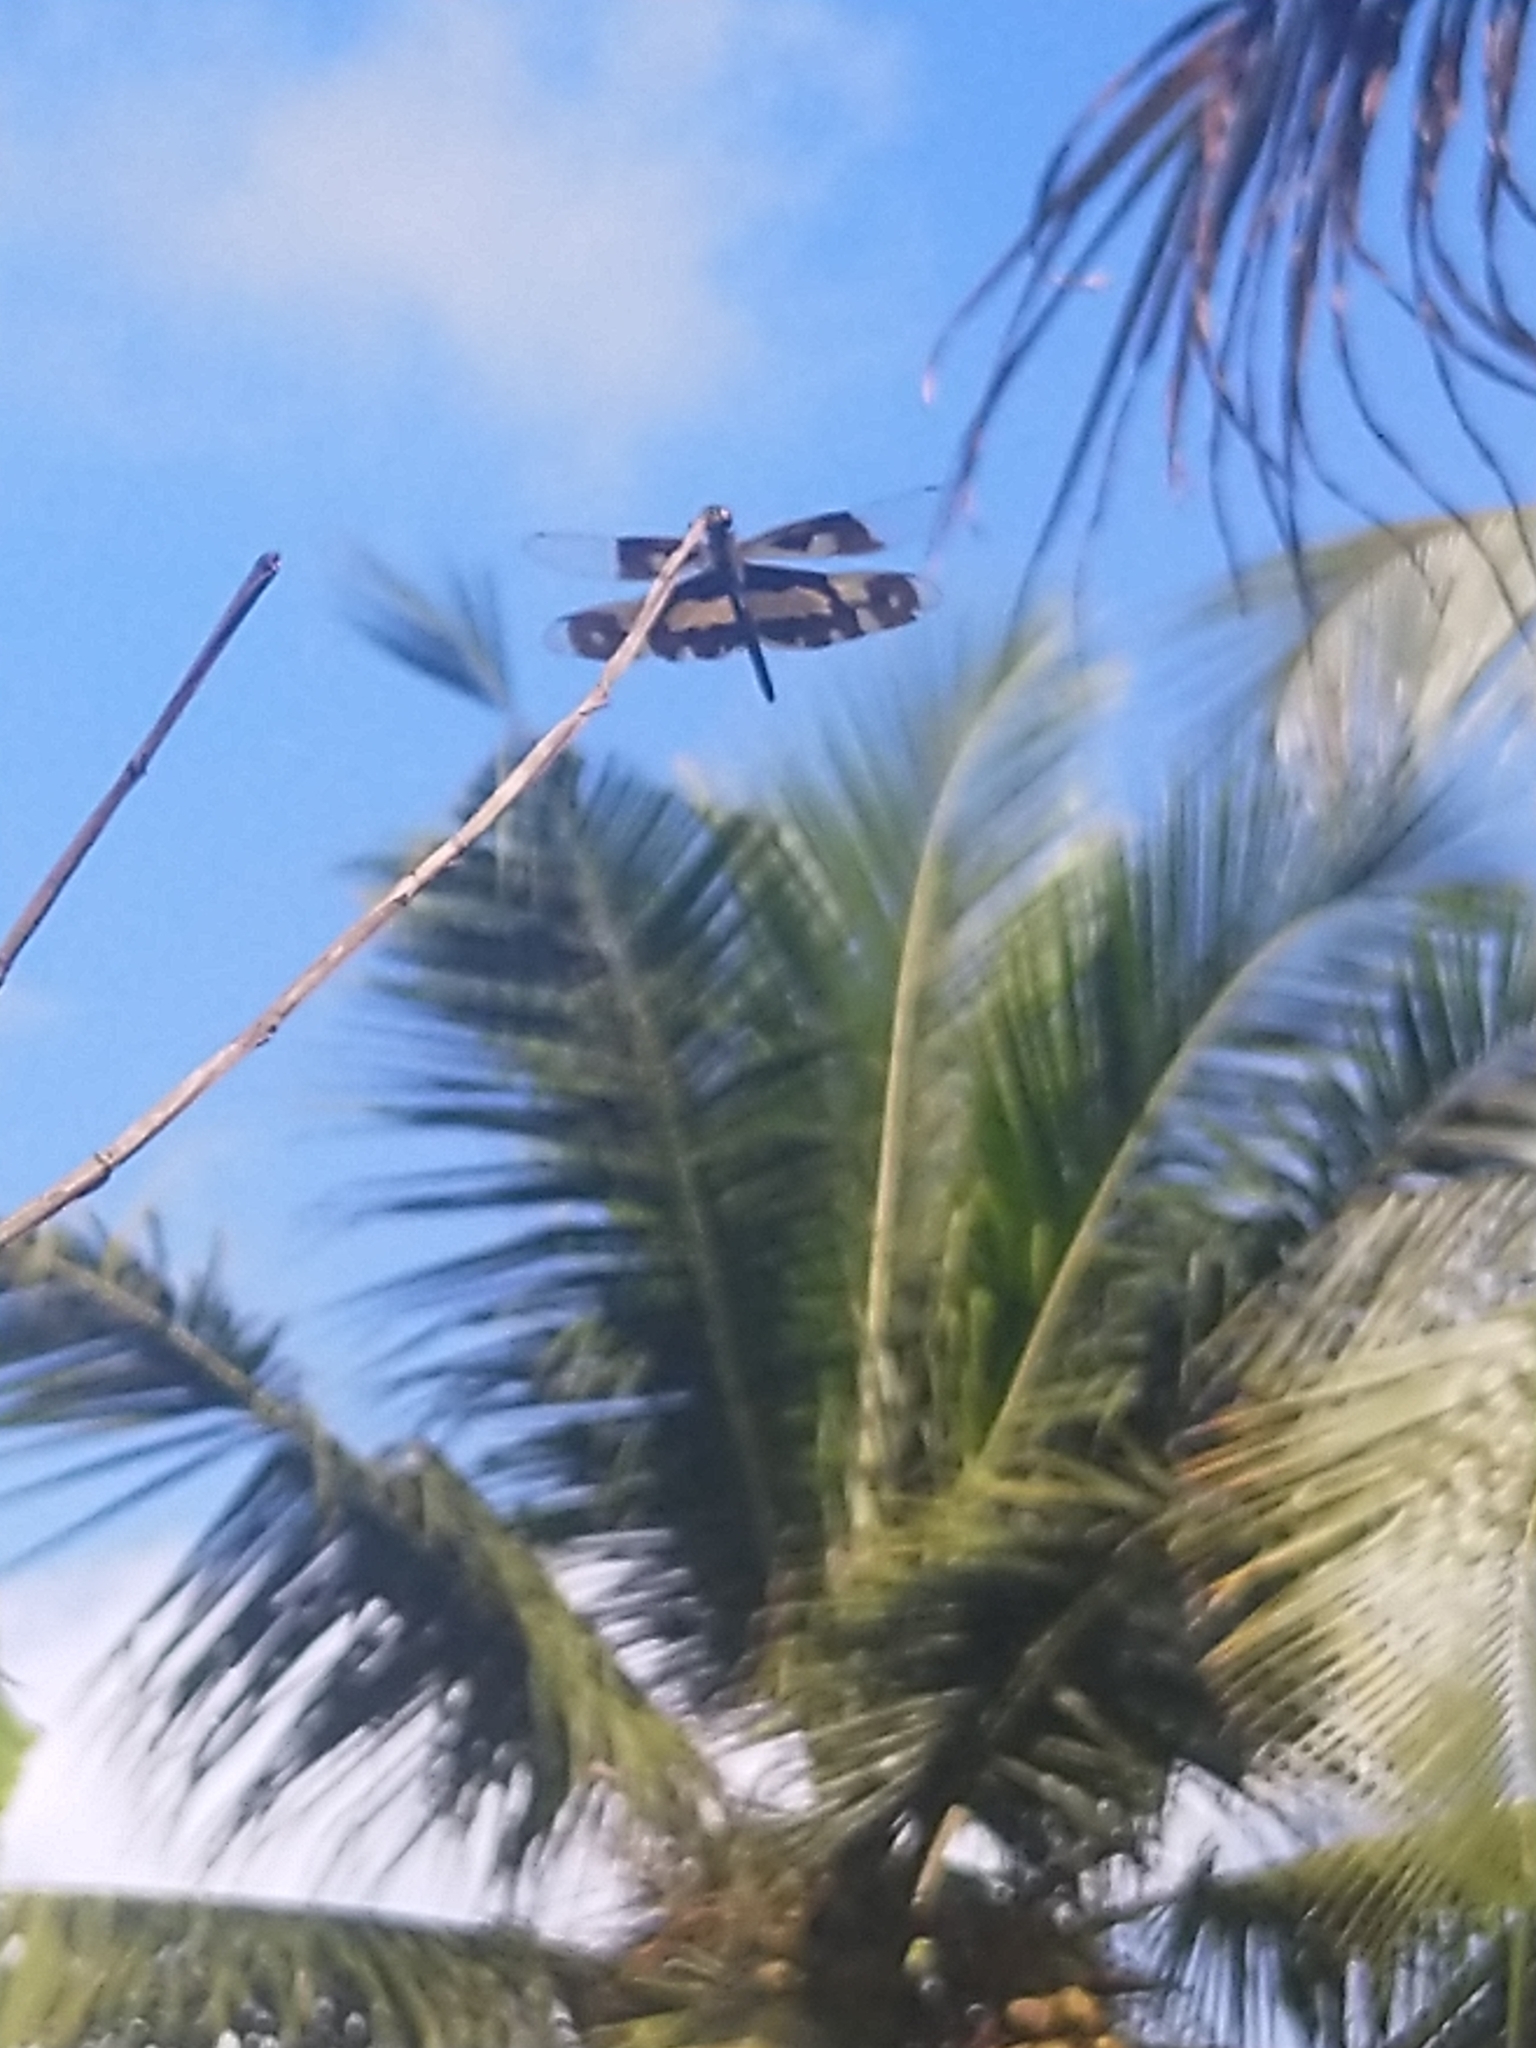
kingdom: Animalia
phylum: Arthropoda
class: Insecta
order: Odonata
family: Libellulidae
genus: Rhyothemis
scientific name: Rhyothemis variegata
